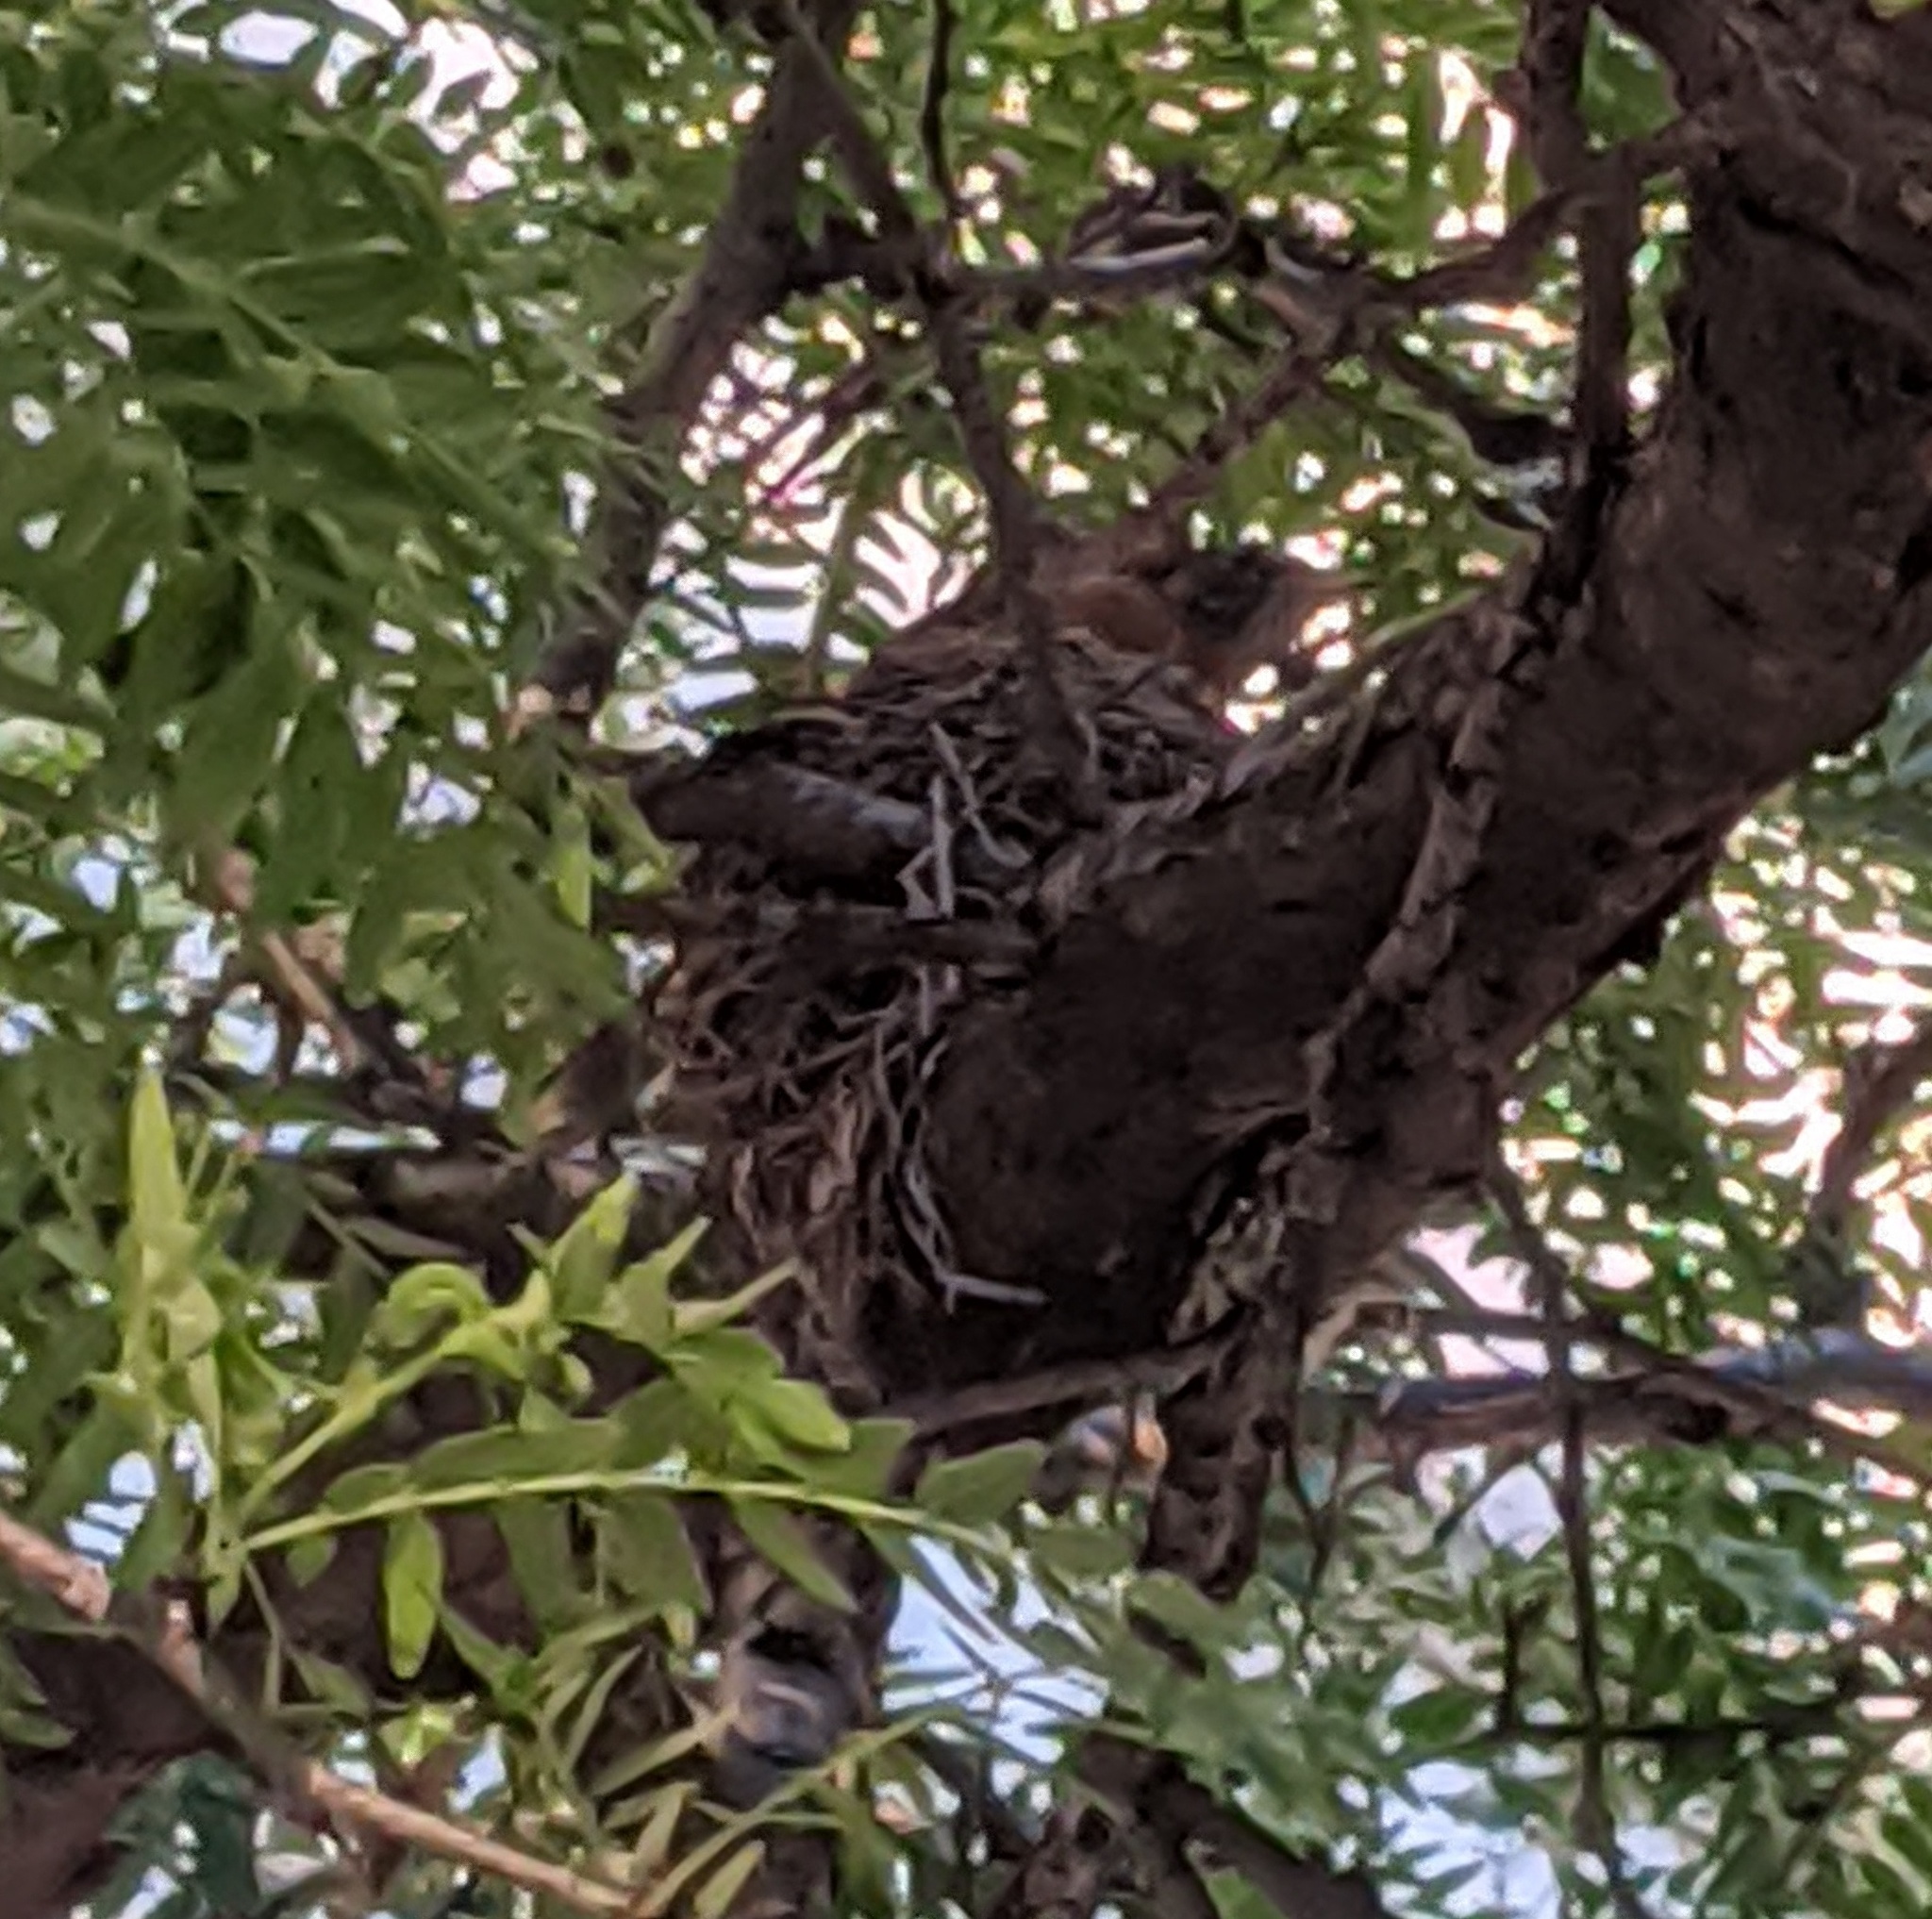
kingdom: Animalia
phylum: Chordata
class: Aves
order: Passeriformes
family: Turdidae
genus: Turdus
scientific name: Turdus migratorius
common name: American robin
